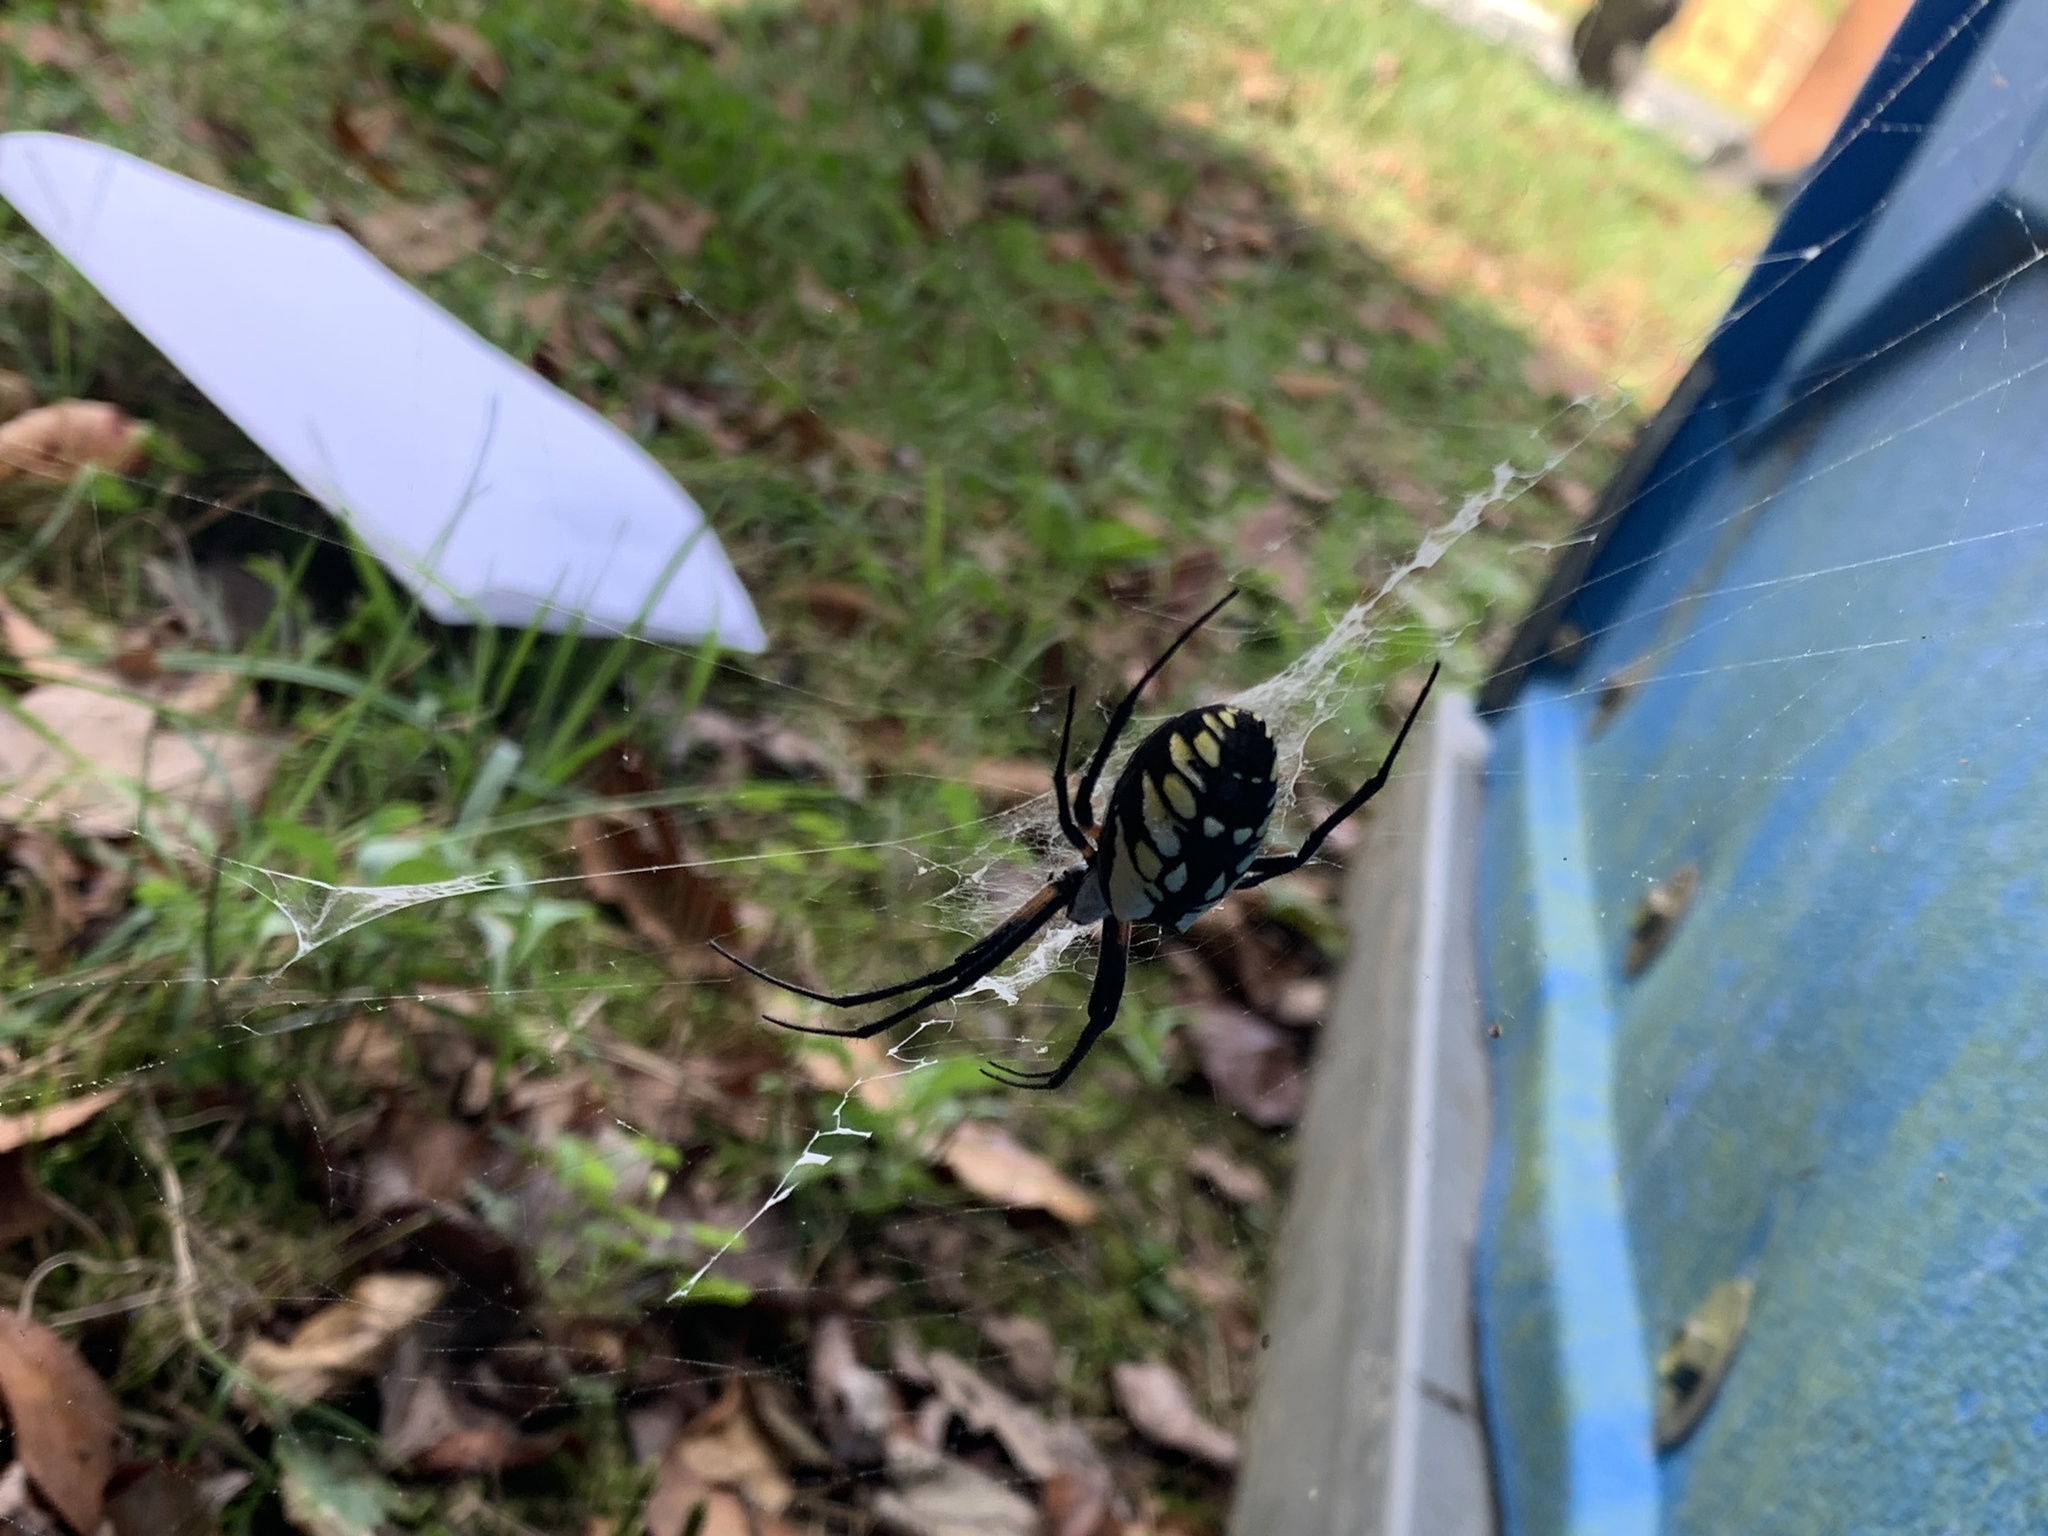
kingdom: Animalia
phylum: Arthropoda
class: Arachnida
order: Araneae
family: Araneidae
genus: Argiope
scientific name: Argiope aurantia
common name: Orb weavers
